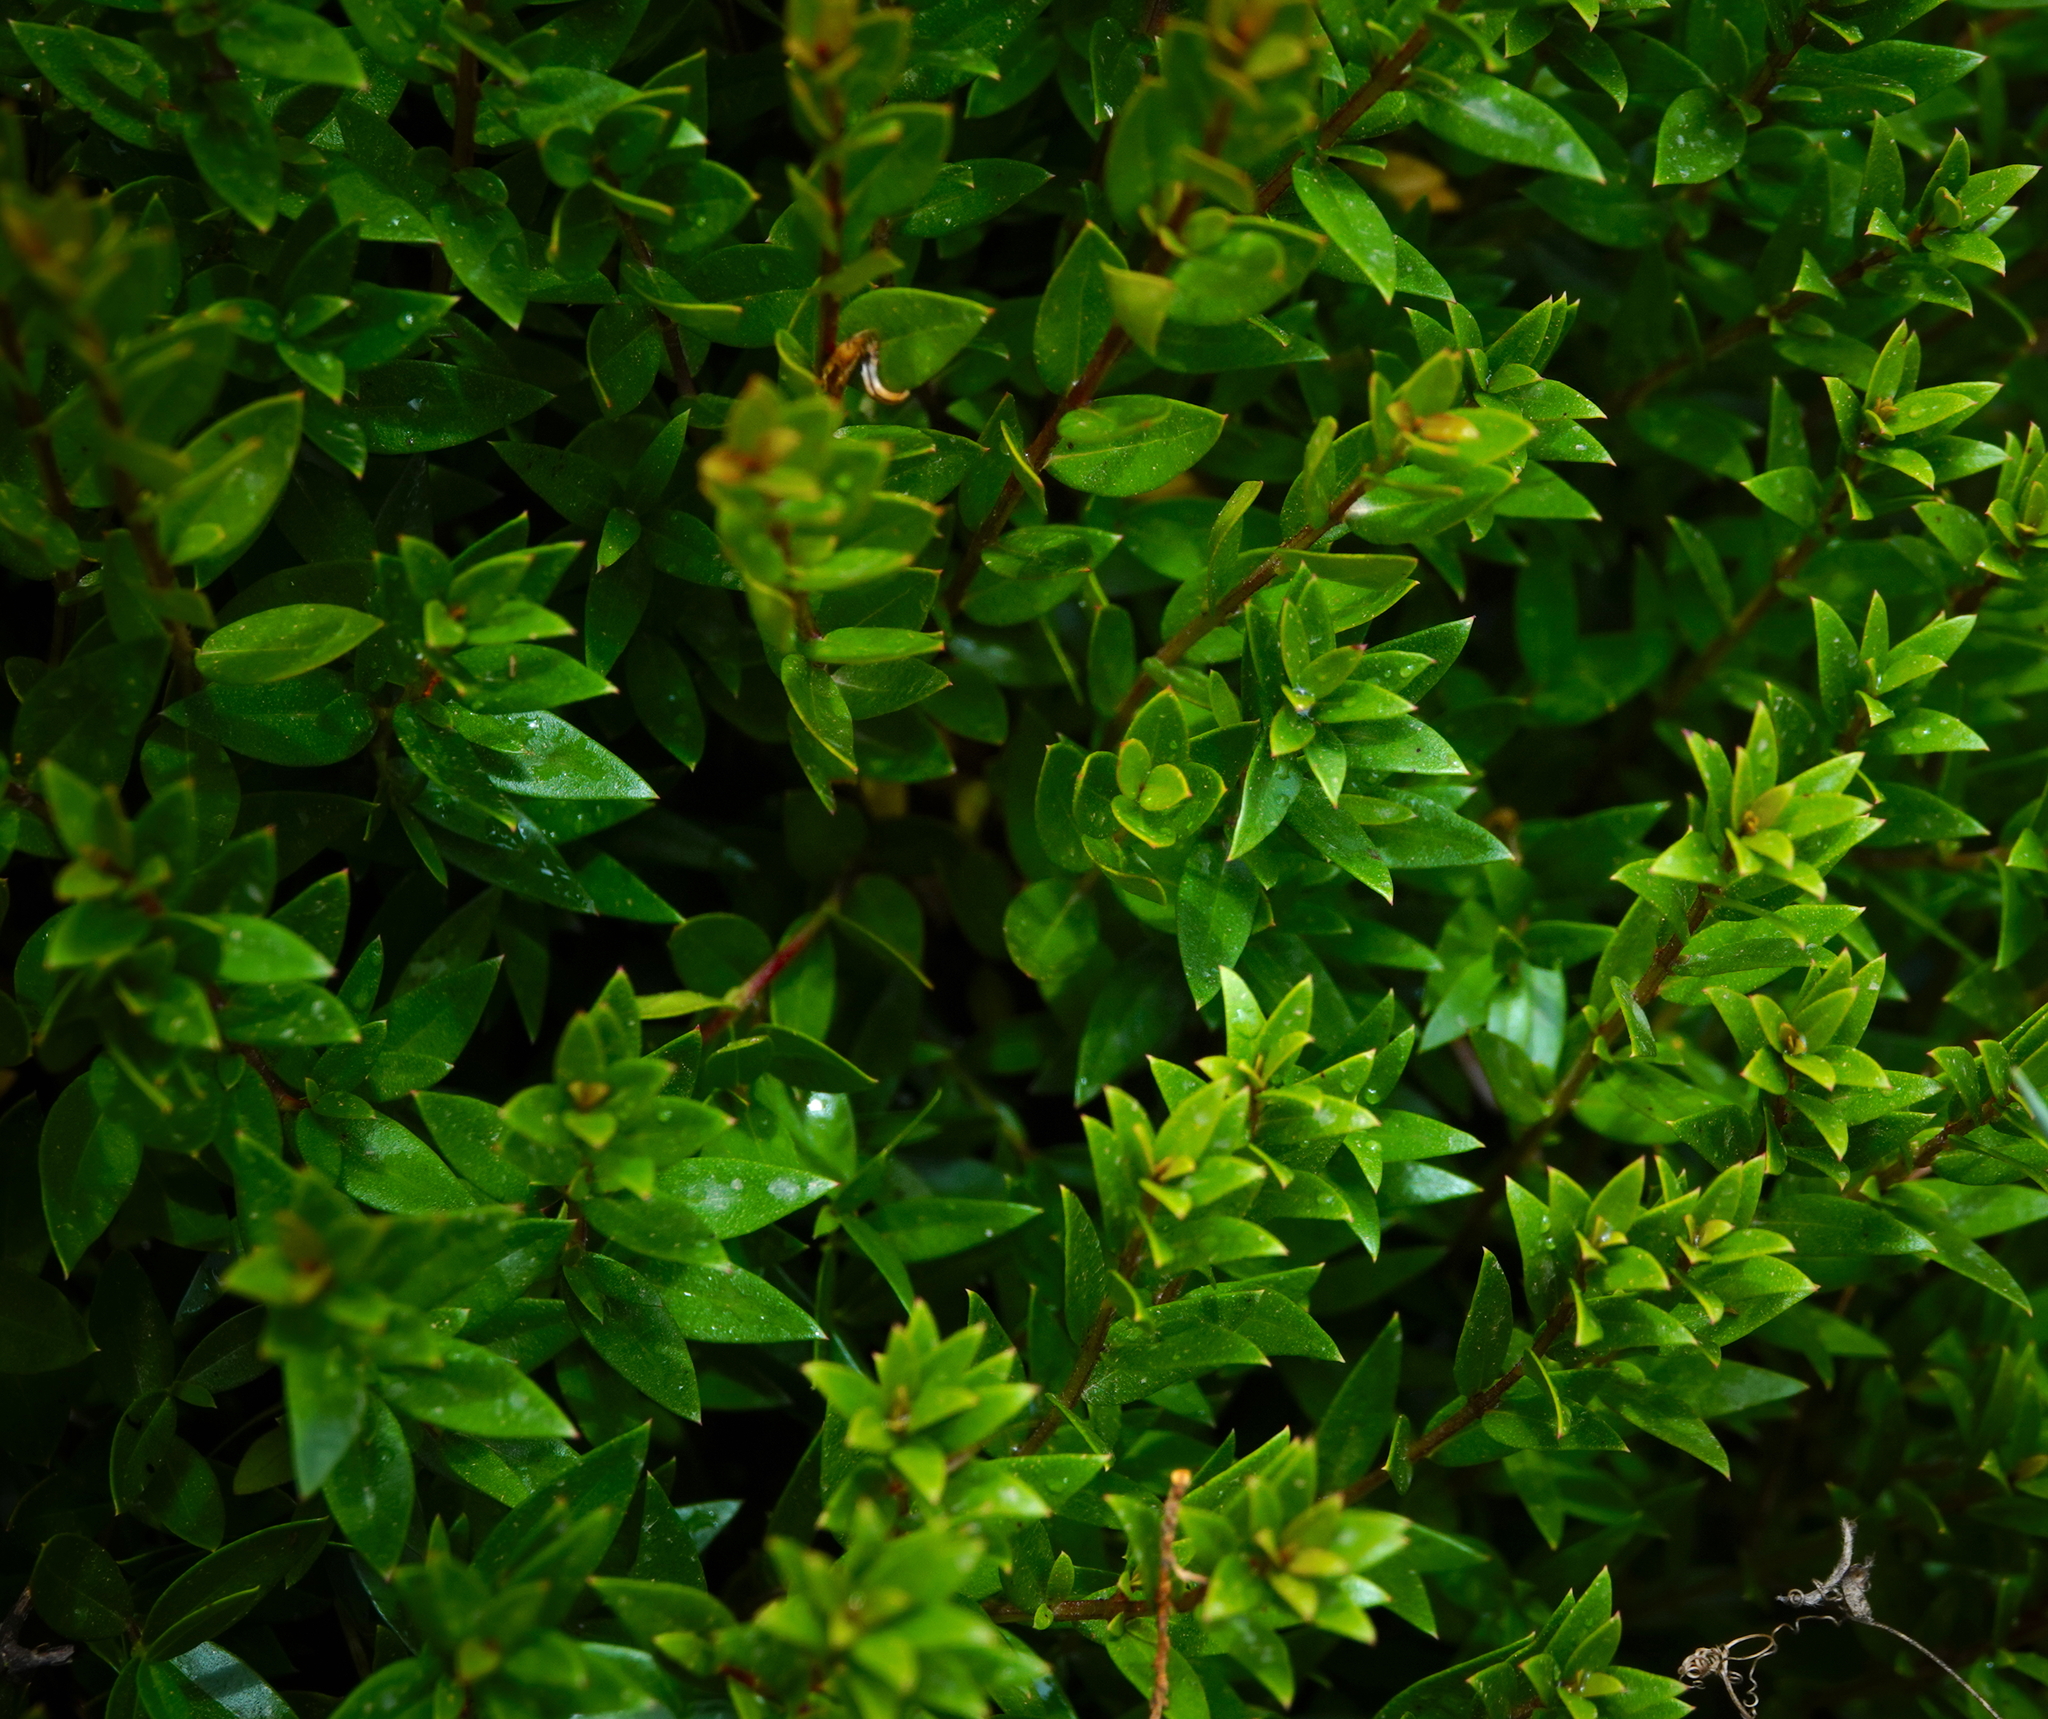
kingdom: Plantae
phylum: Tracheophyta
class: Magnoliopsida
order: Myrtales
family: Myrtaceae
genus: Myrtus
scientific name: Myrtus communis
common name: Myrtle
